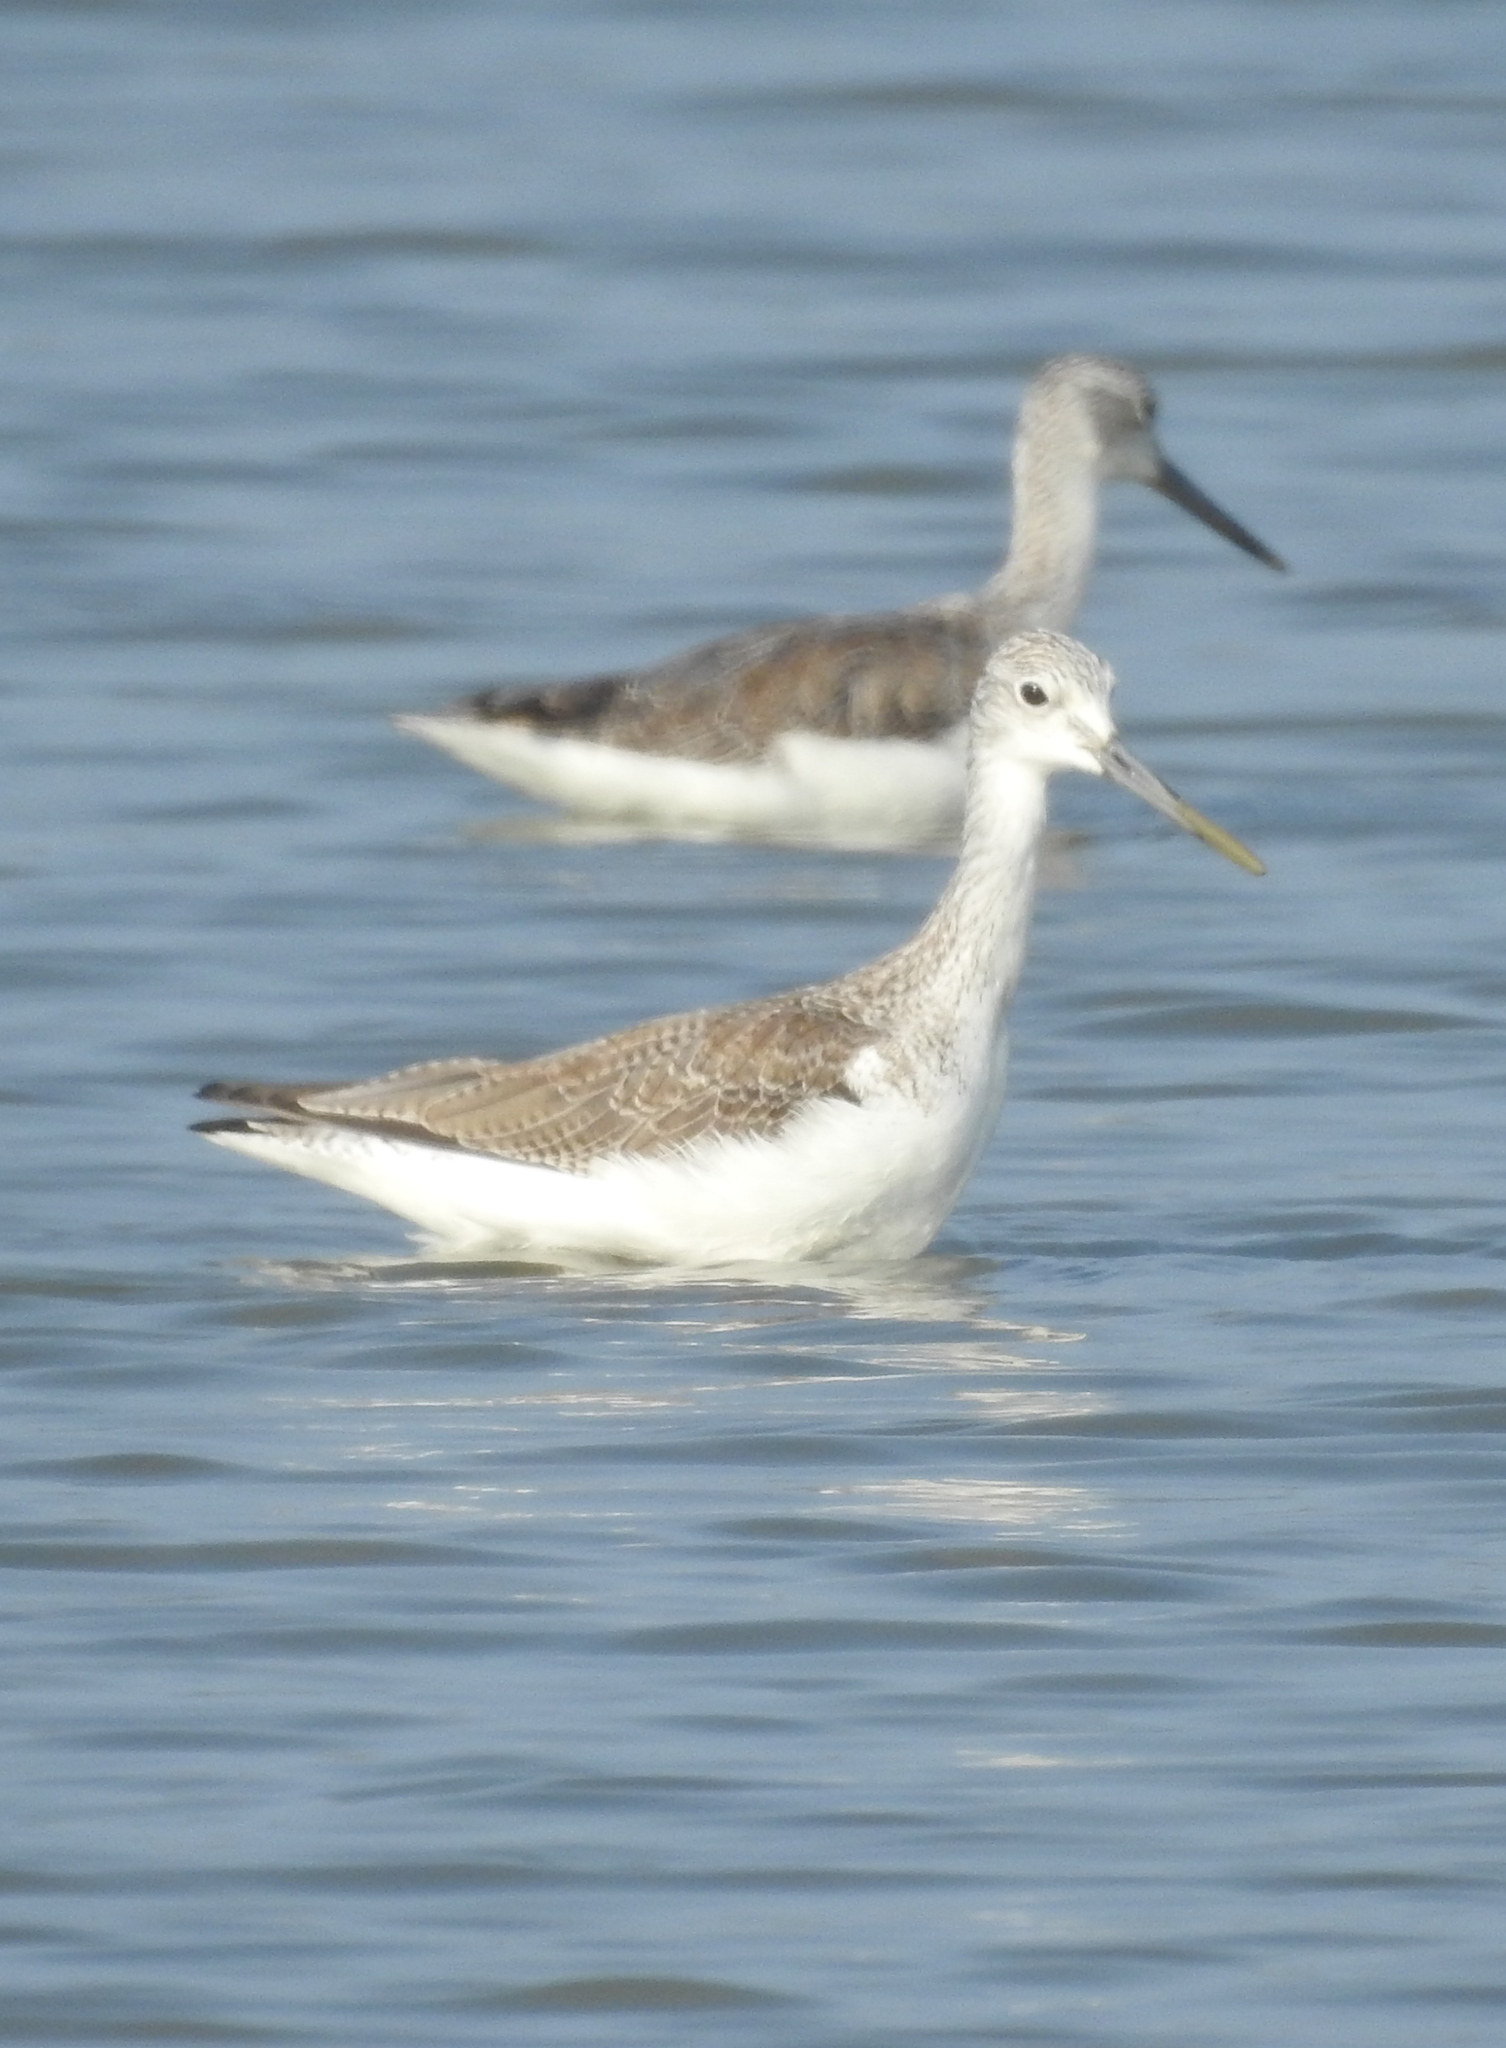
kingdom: Animalia
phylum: Chordata
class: Aves
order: Charadriiformes
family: Scolopacidae
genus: Tringa
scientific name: Tringa nebularia
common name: Common greenshank
